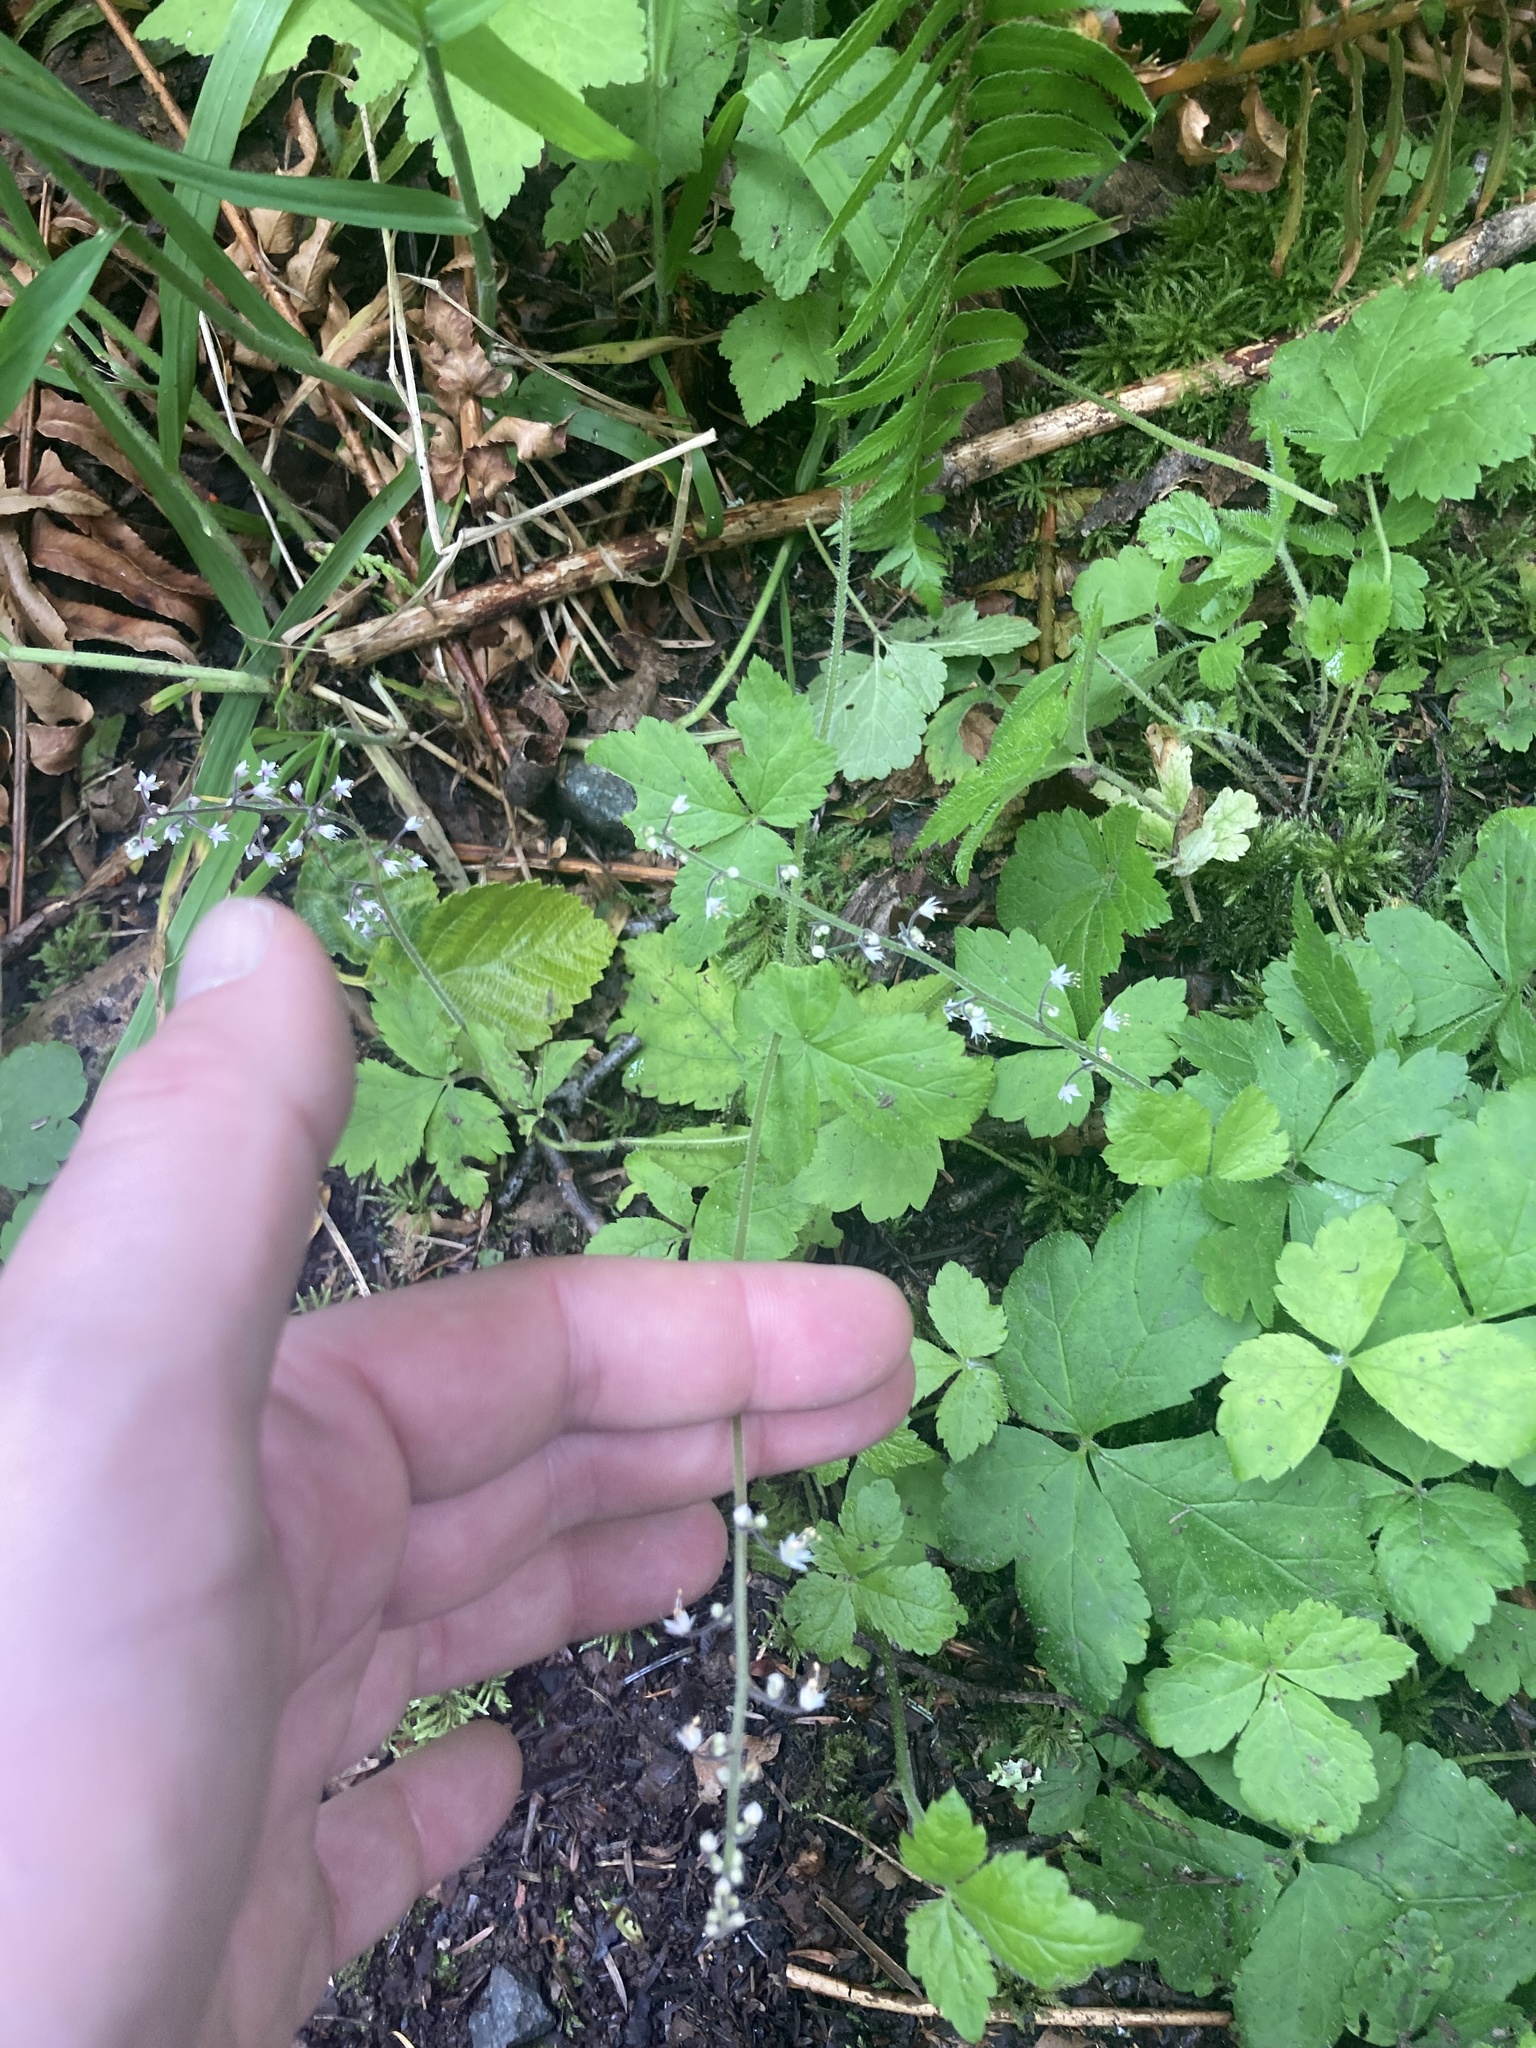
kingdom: Plantae
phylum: Tracheophyta
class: Magnoliopsida
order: Saxifragales
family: Saxifragaceae
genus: Tiarella
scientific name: Tiarella trifoliata
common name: Sugar-scoop
